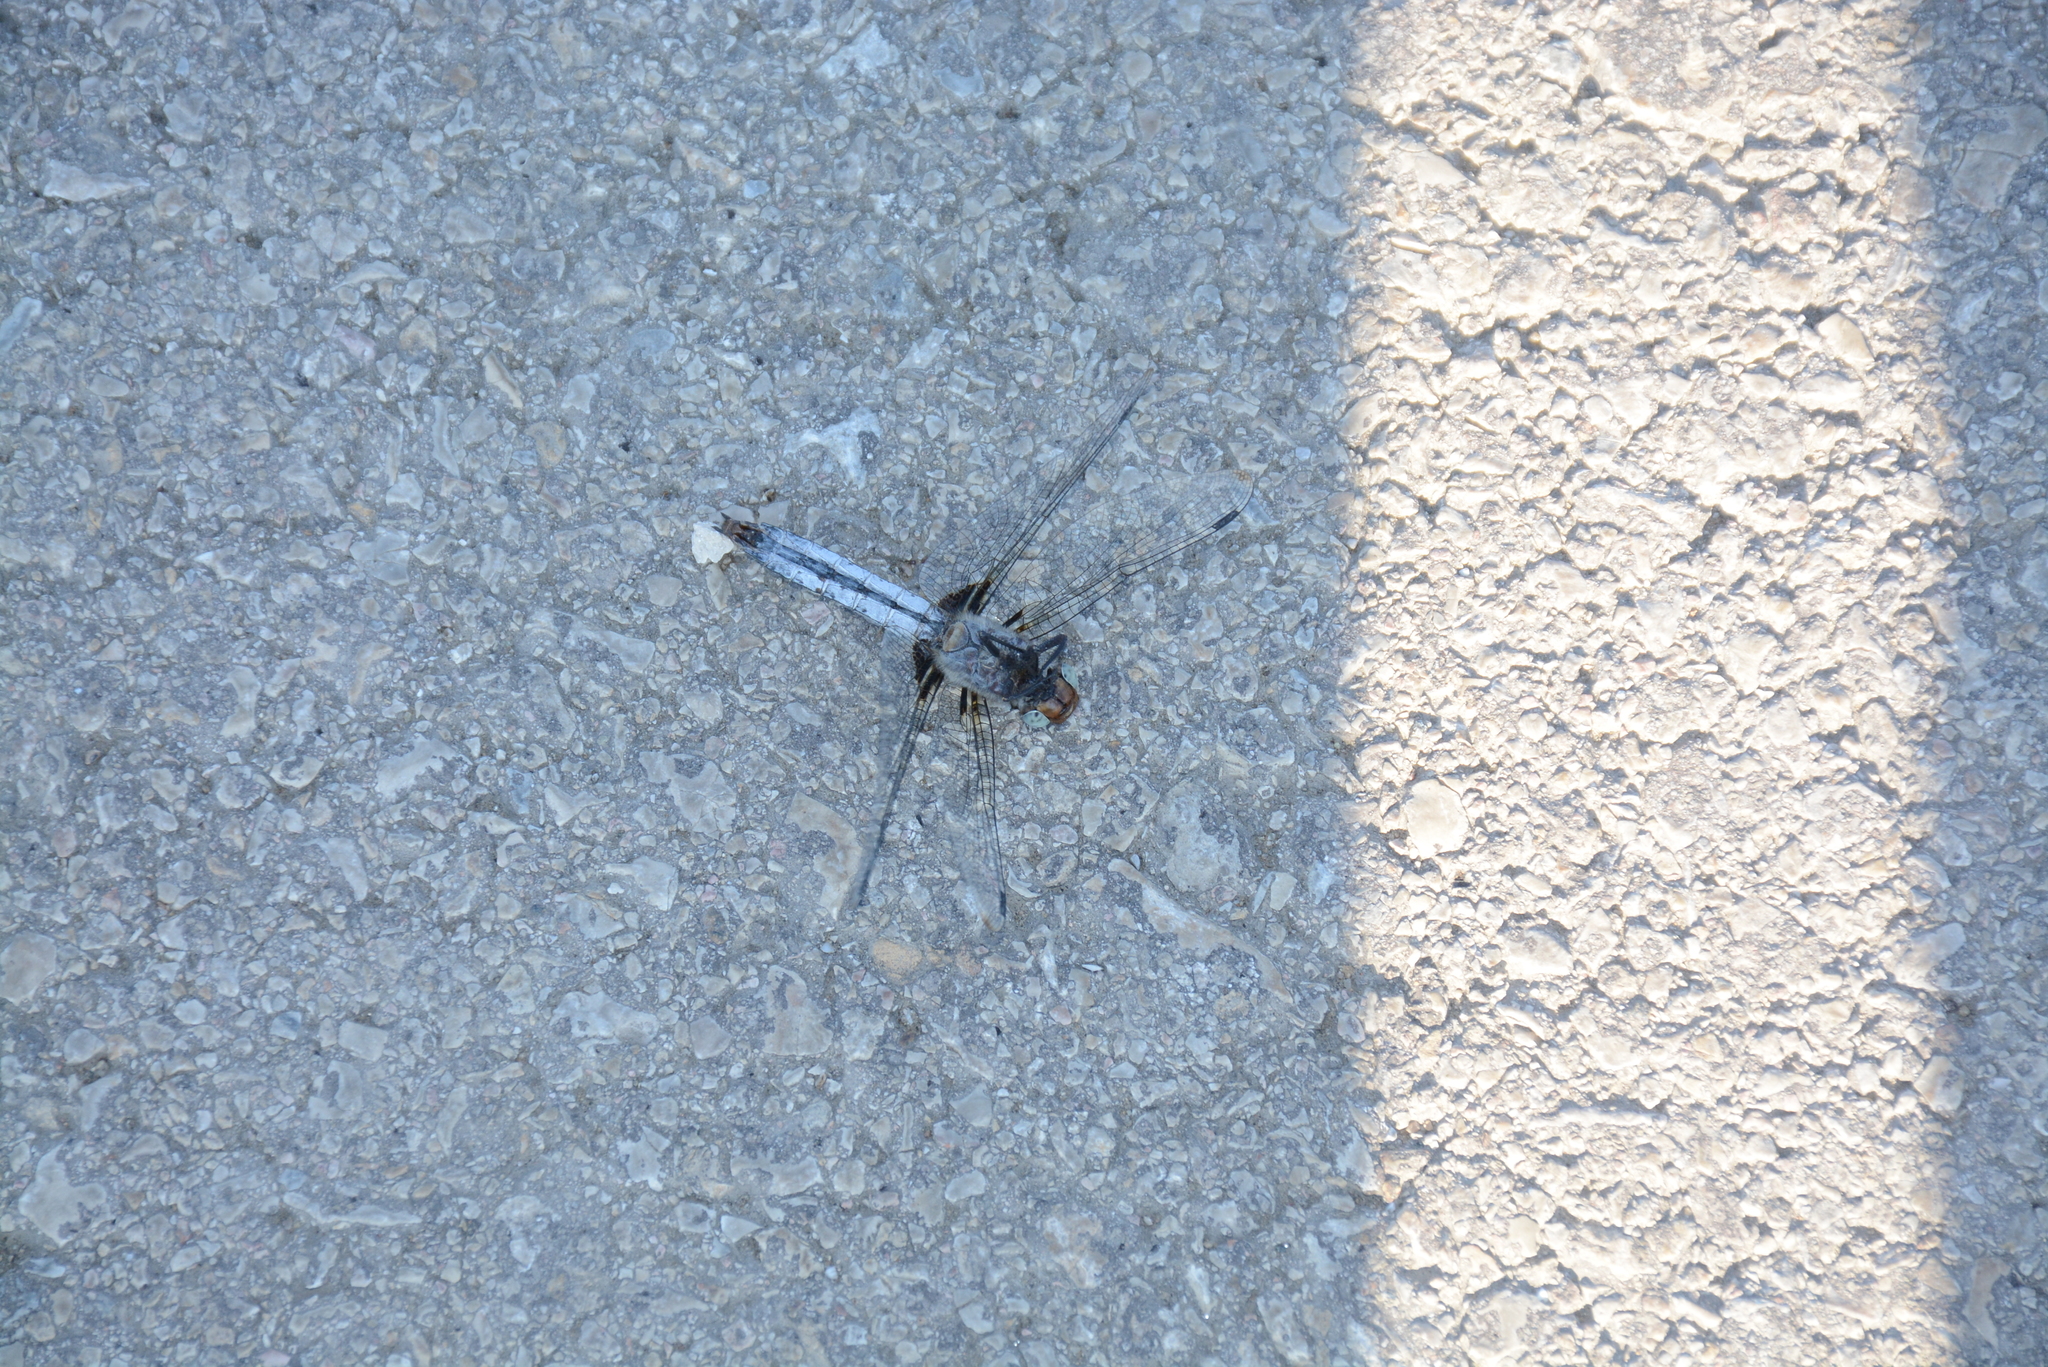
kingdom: Animalia
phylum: Arthropoda
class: Insecta
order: Odonata
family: Libellulidae
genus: Libellula
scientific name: Libellula fulva
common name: Blue chaser
